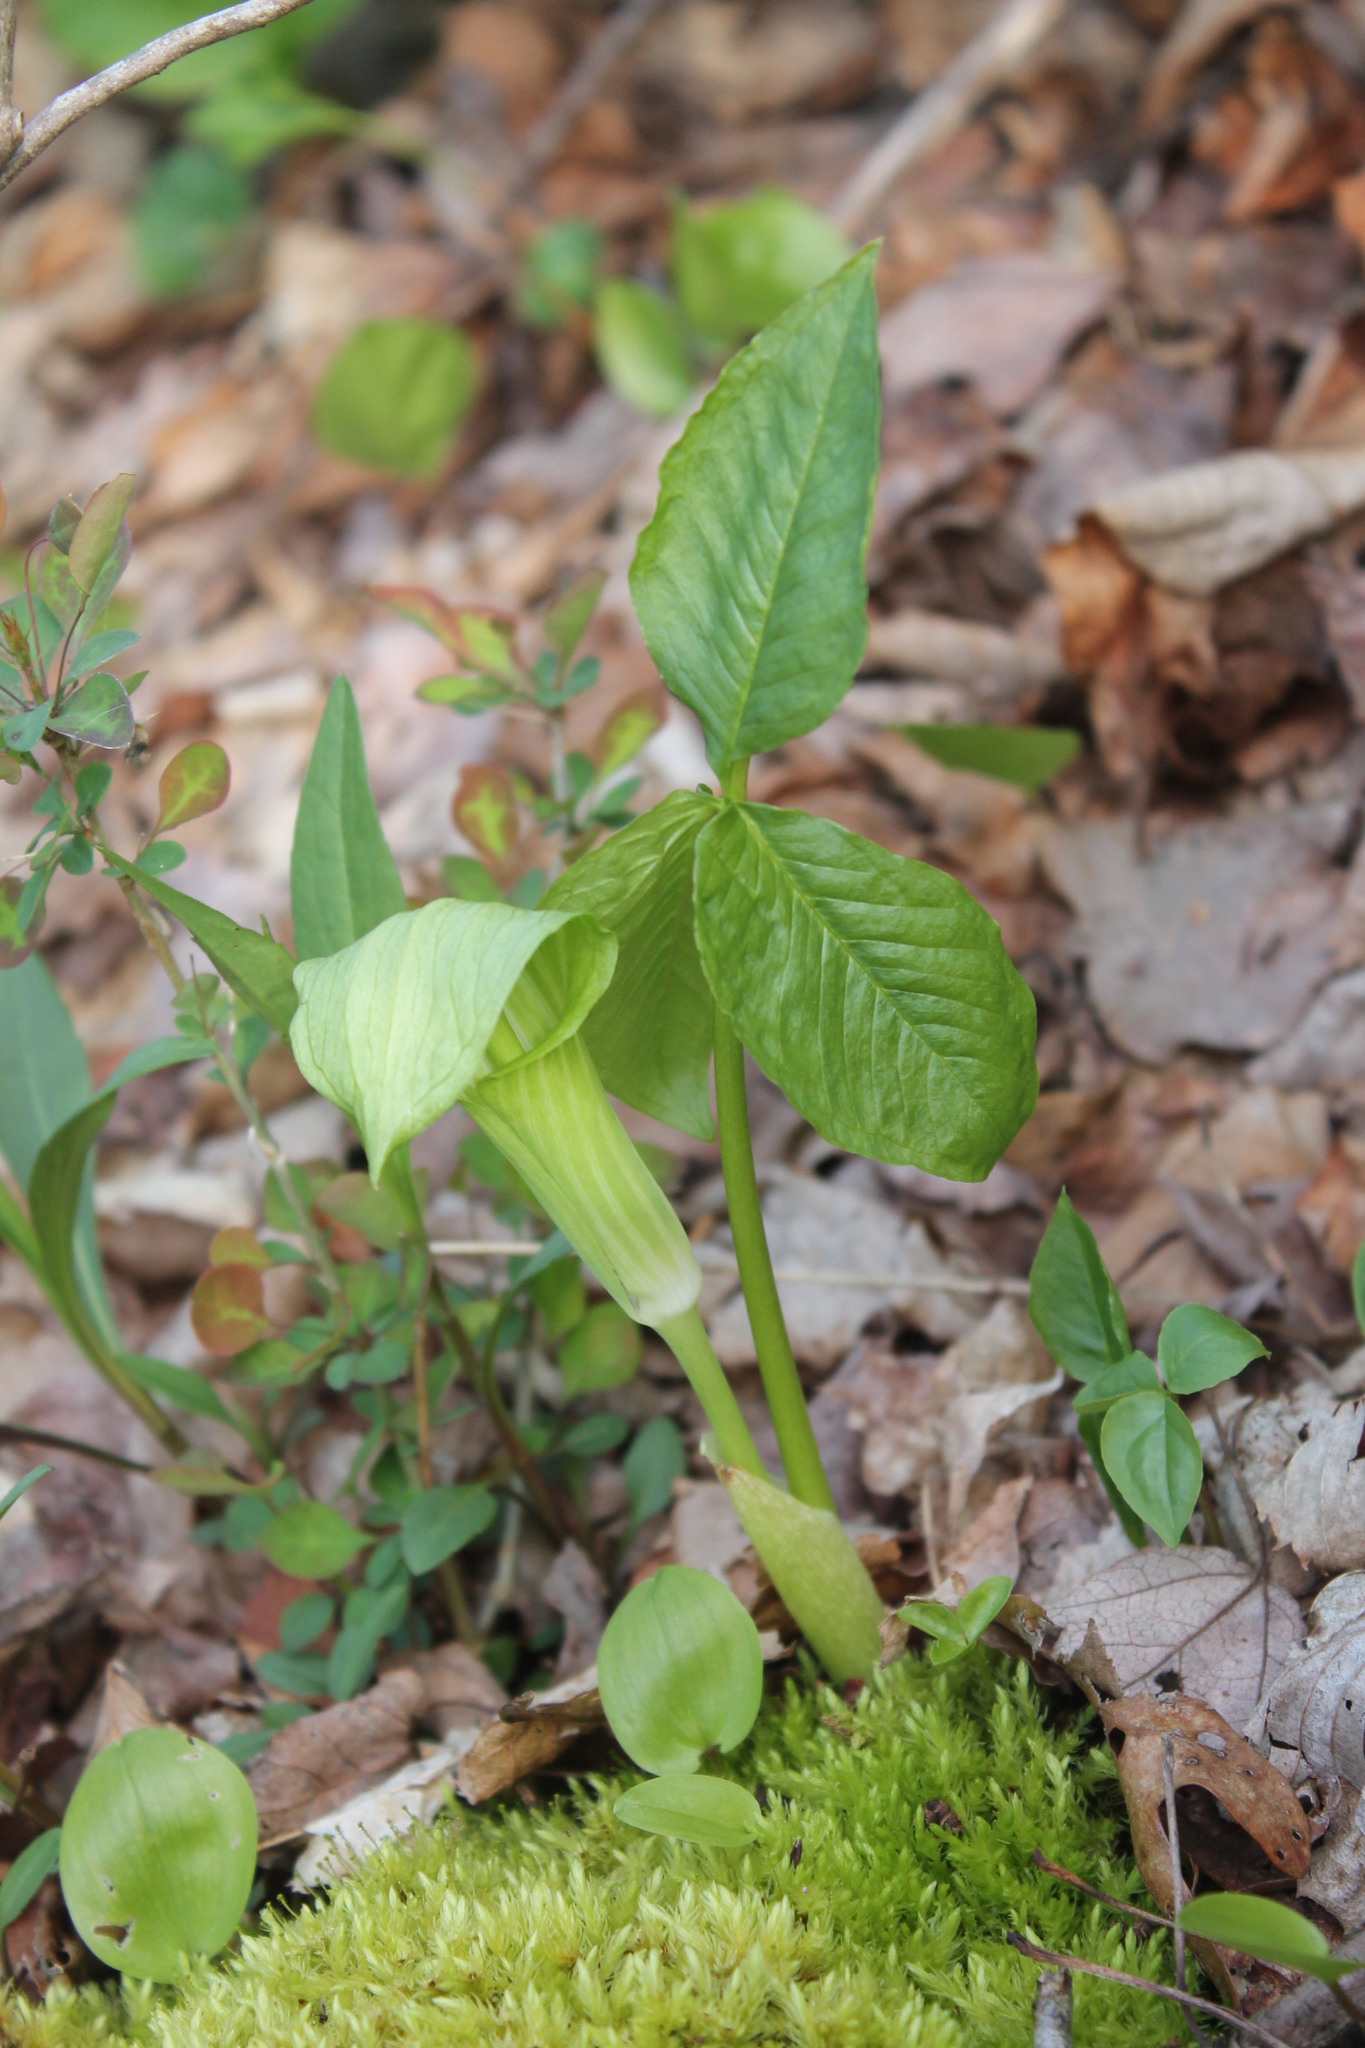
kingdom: Plantae
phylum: Tracheophyta
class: Liliopsida
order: Alismatales
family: Araceae
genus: Arisaema
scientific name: Arisaema triphyllum
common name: Jack-in-the-pulpit
